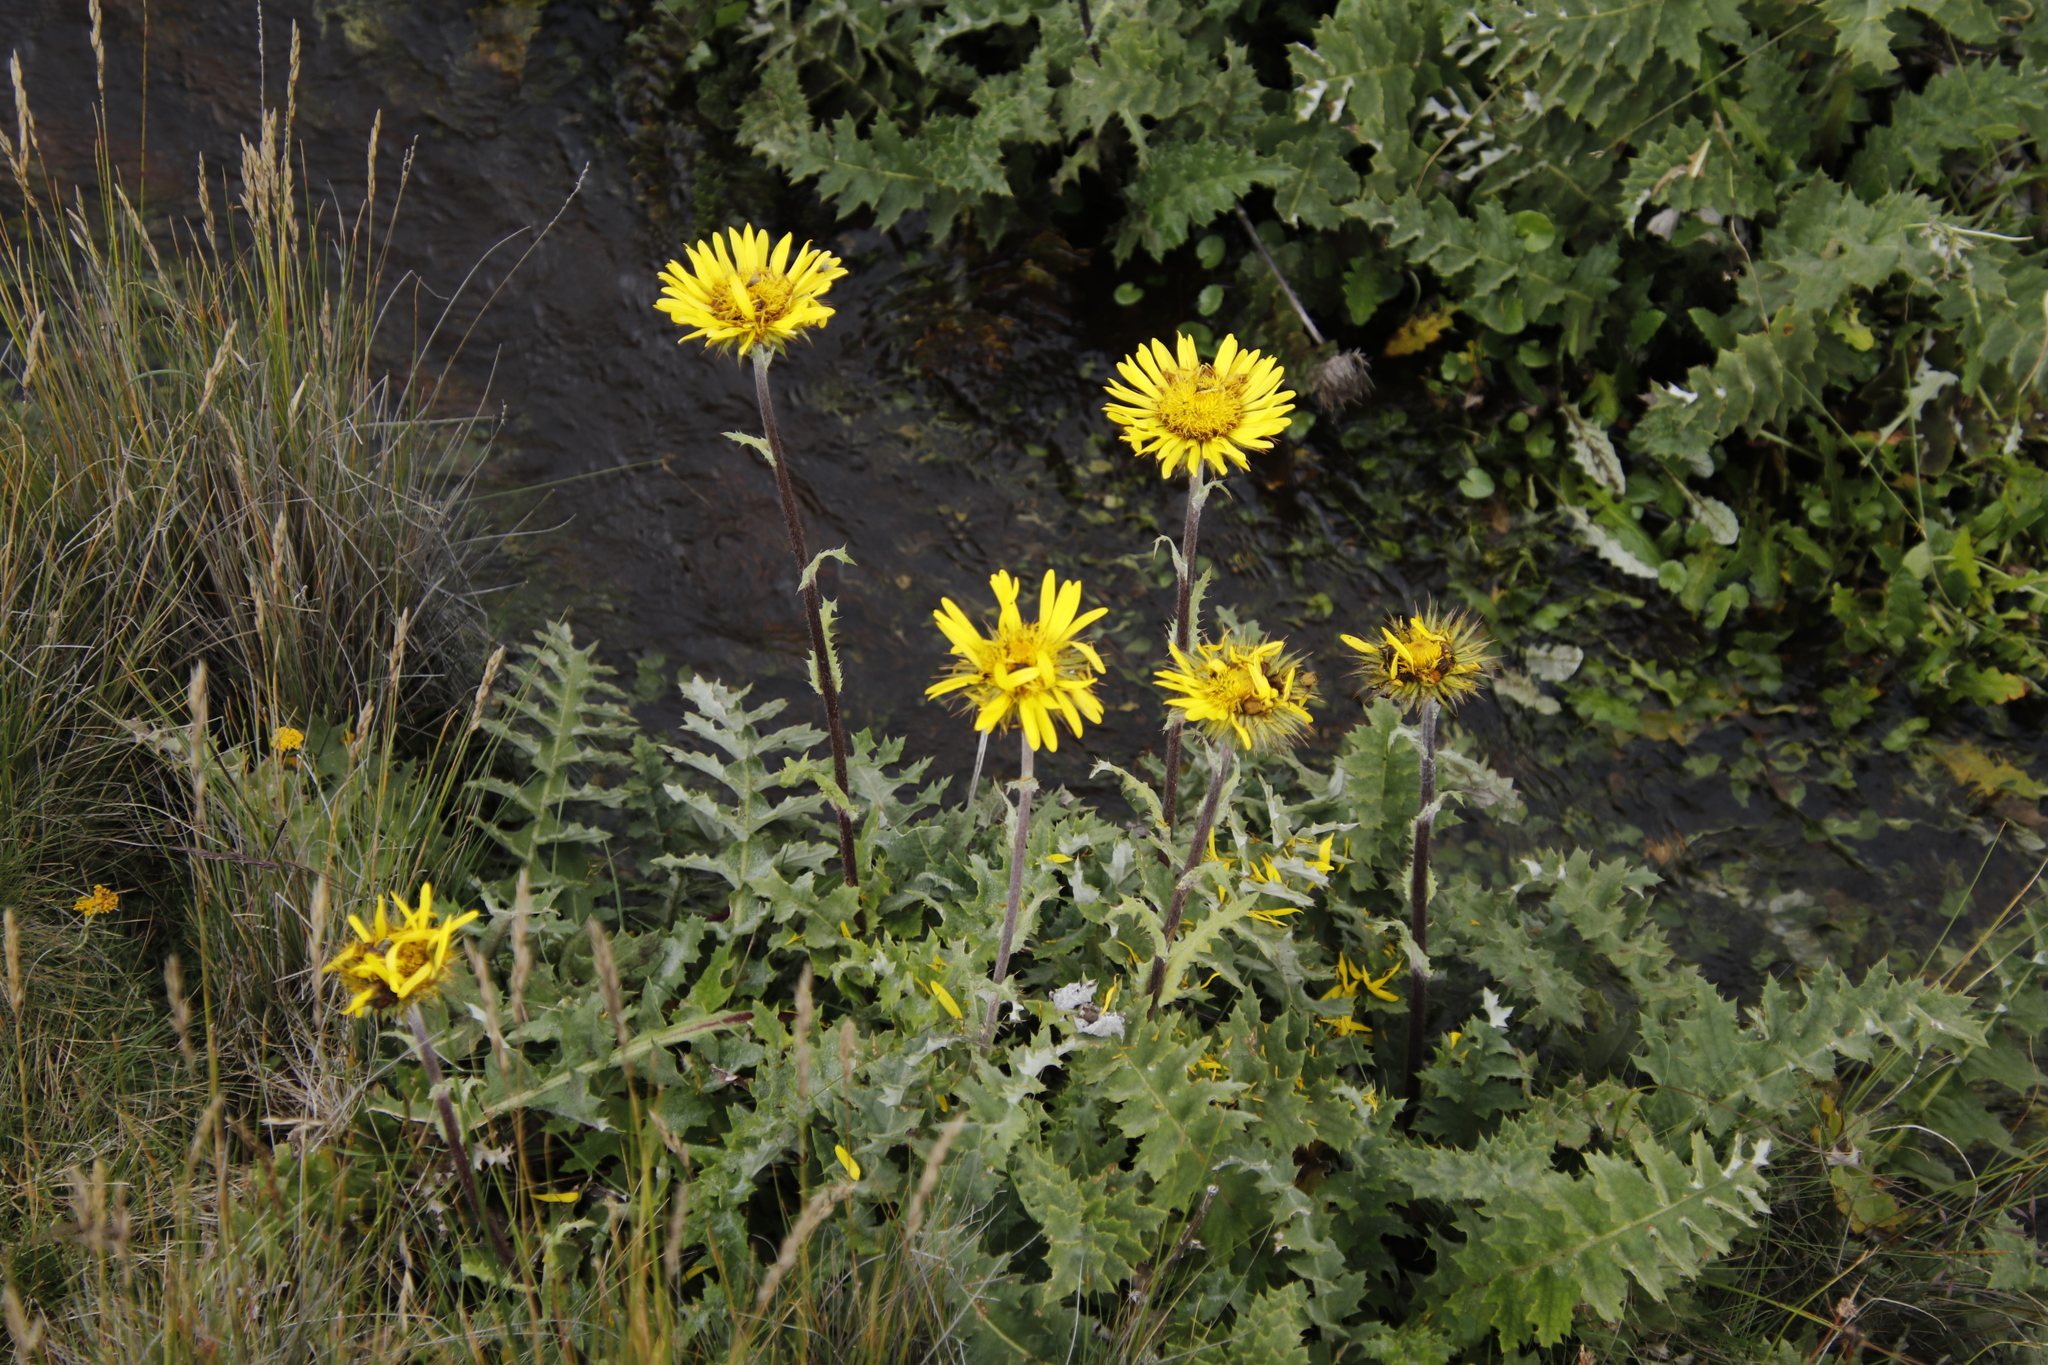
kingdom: Plantae
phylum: Tracheophyta
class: Magnoliopsida
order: Asterales
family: Asteraceae
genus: Berkheya
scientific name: Berkheya multijuga
